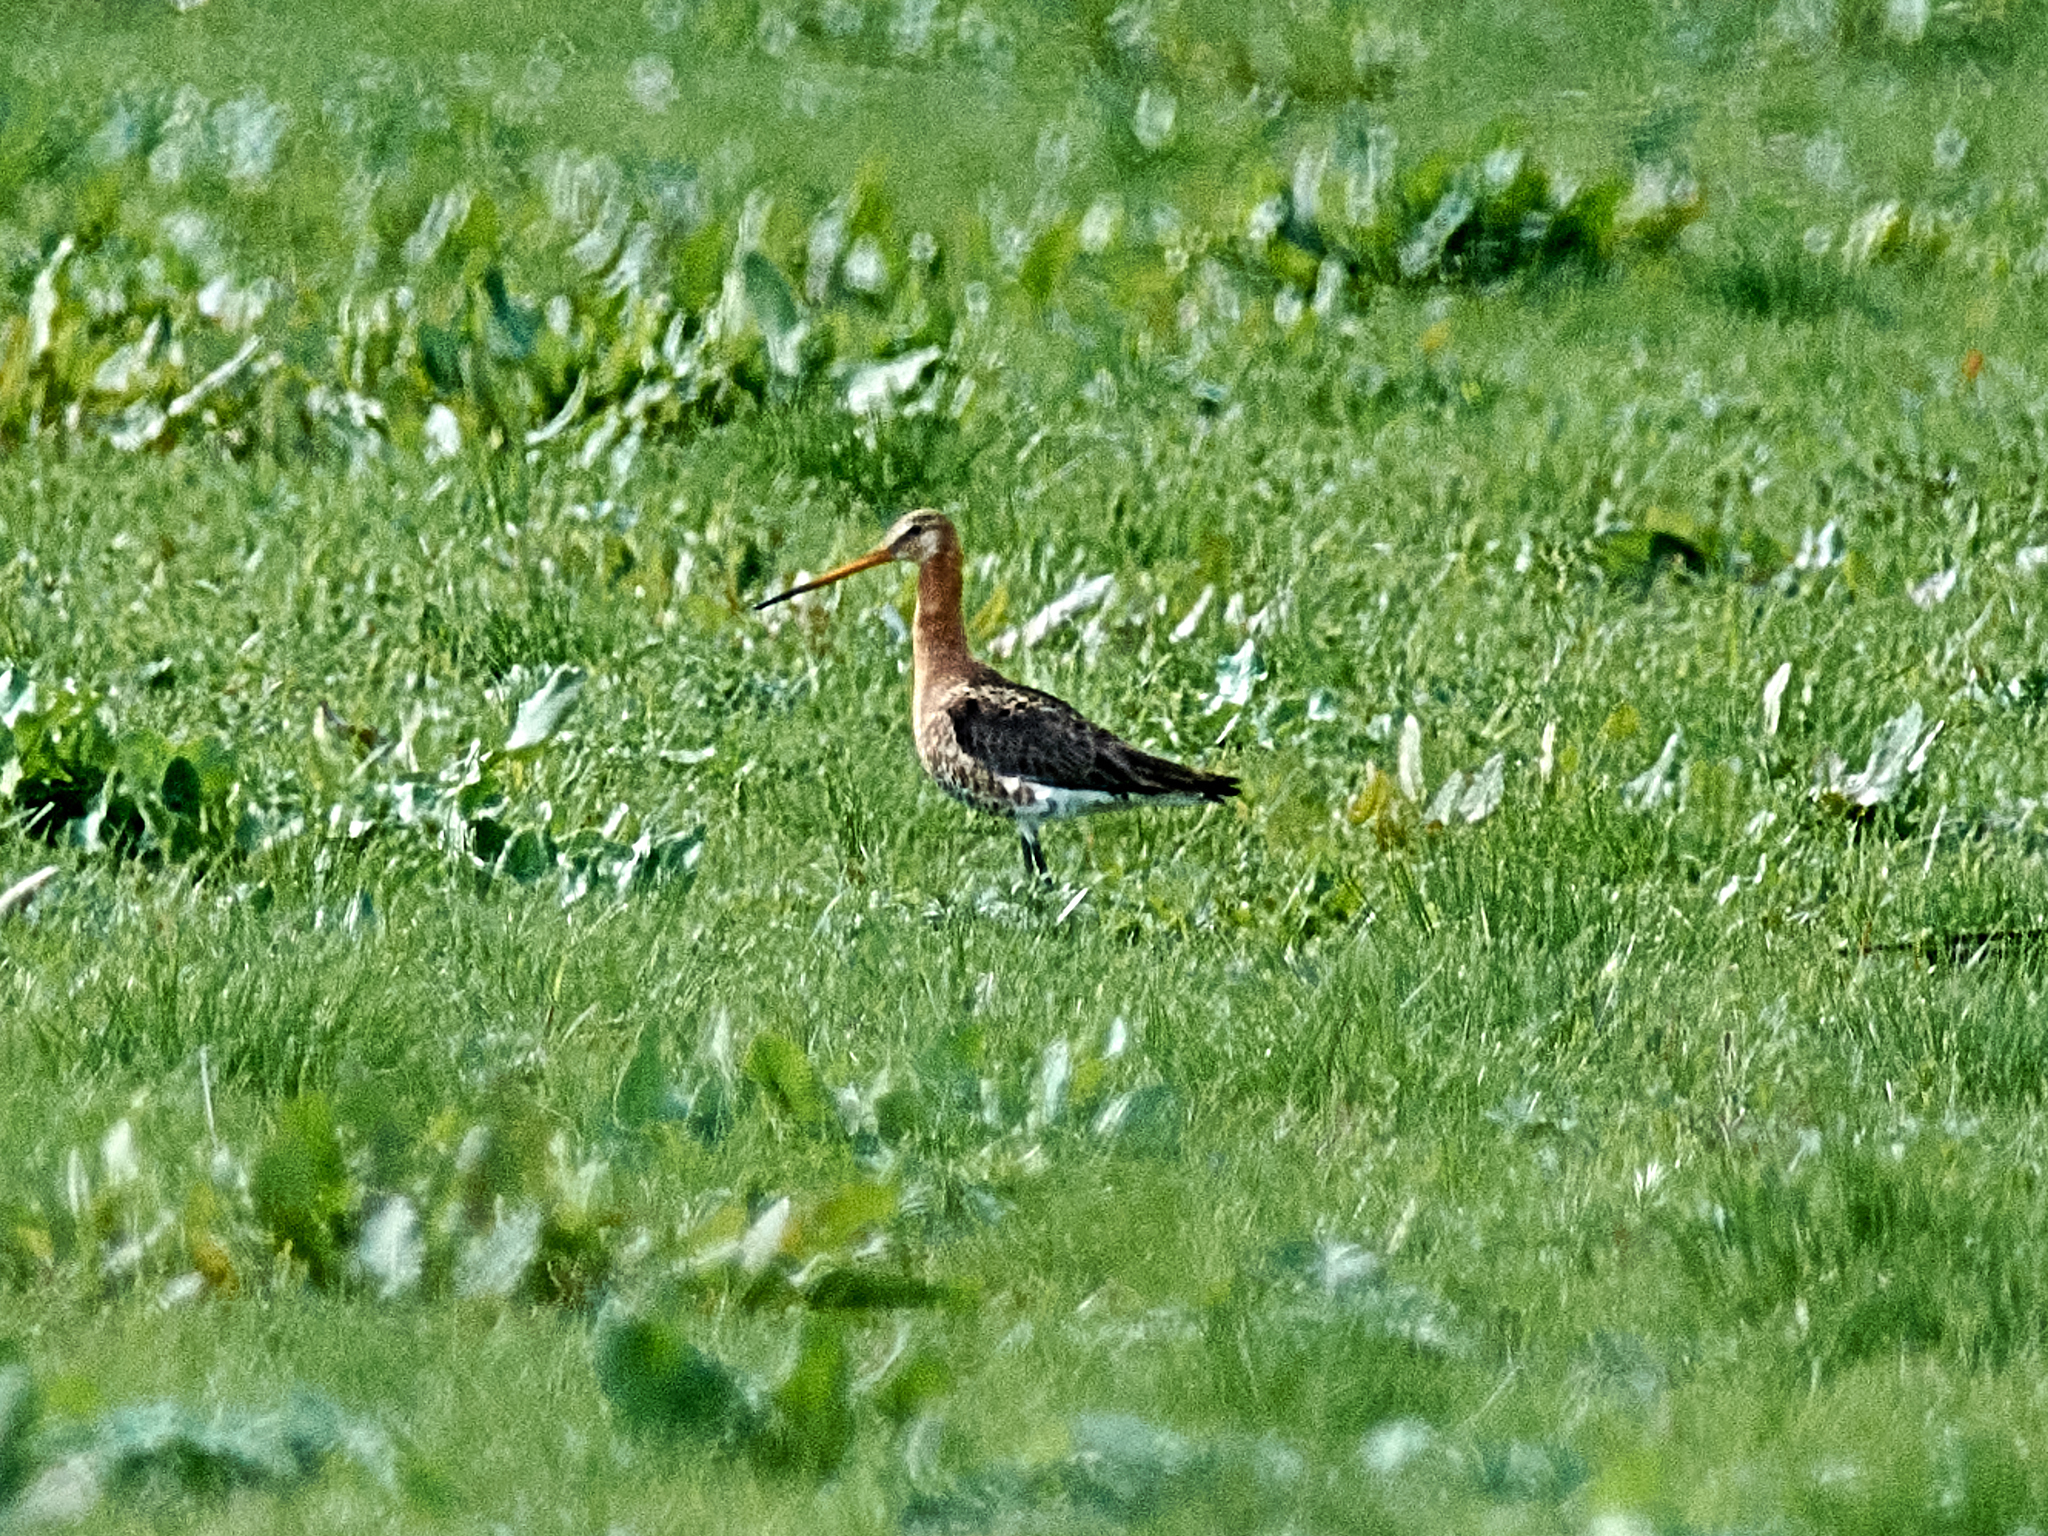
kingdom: Animalia
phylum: Chordata
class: Aves
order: Charadriiformes
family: Scolopacidae
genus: Limosa
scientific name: Limosa limosa
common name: Black-tailed godwit
